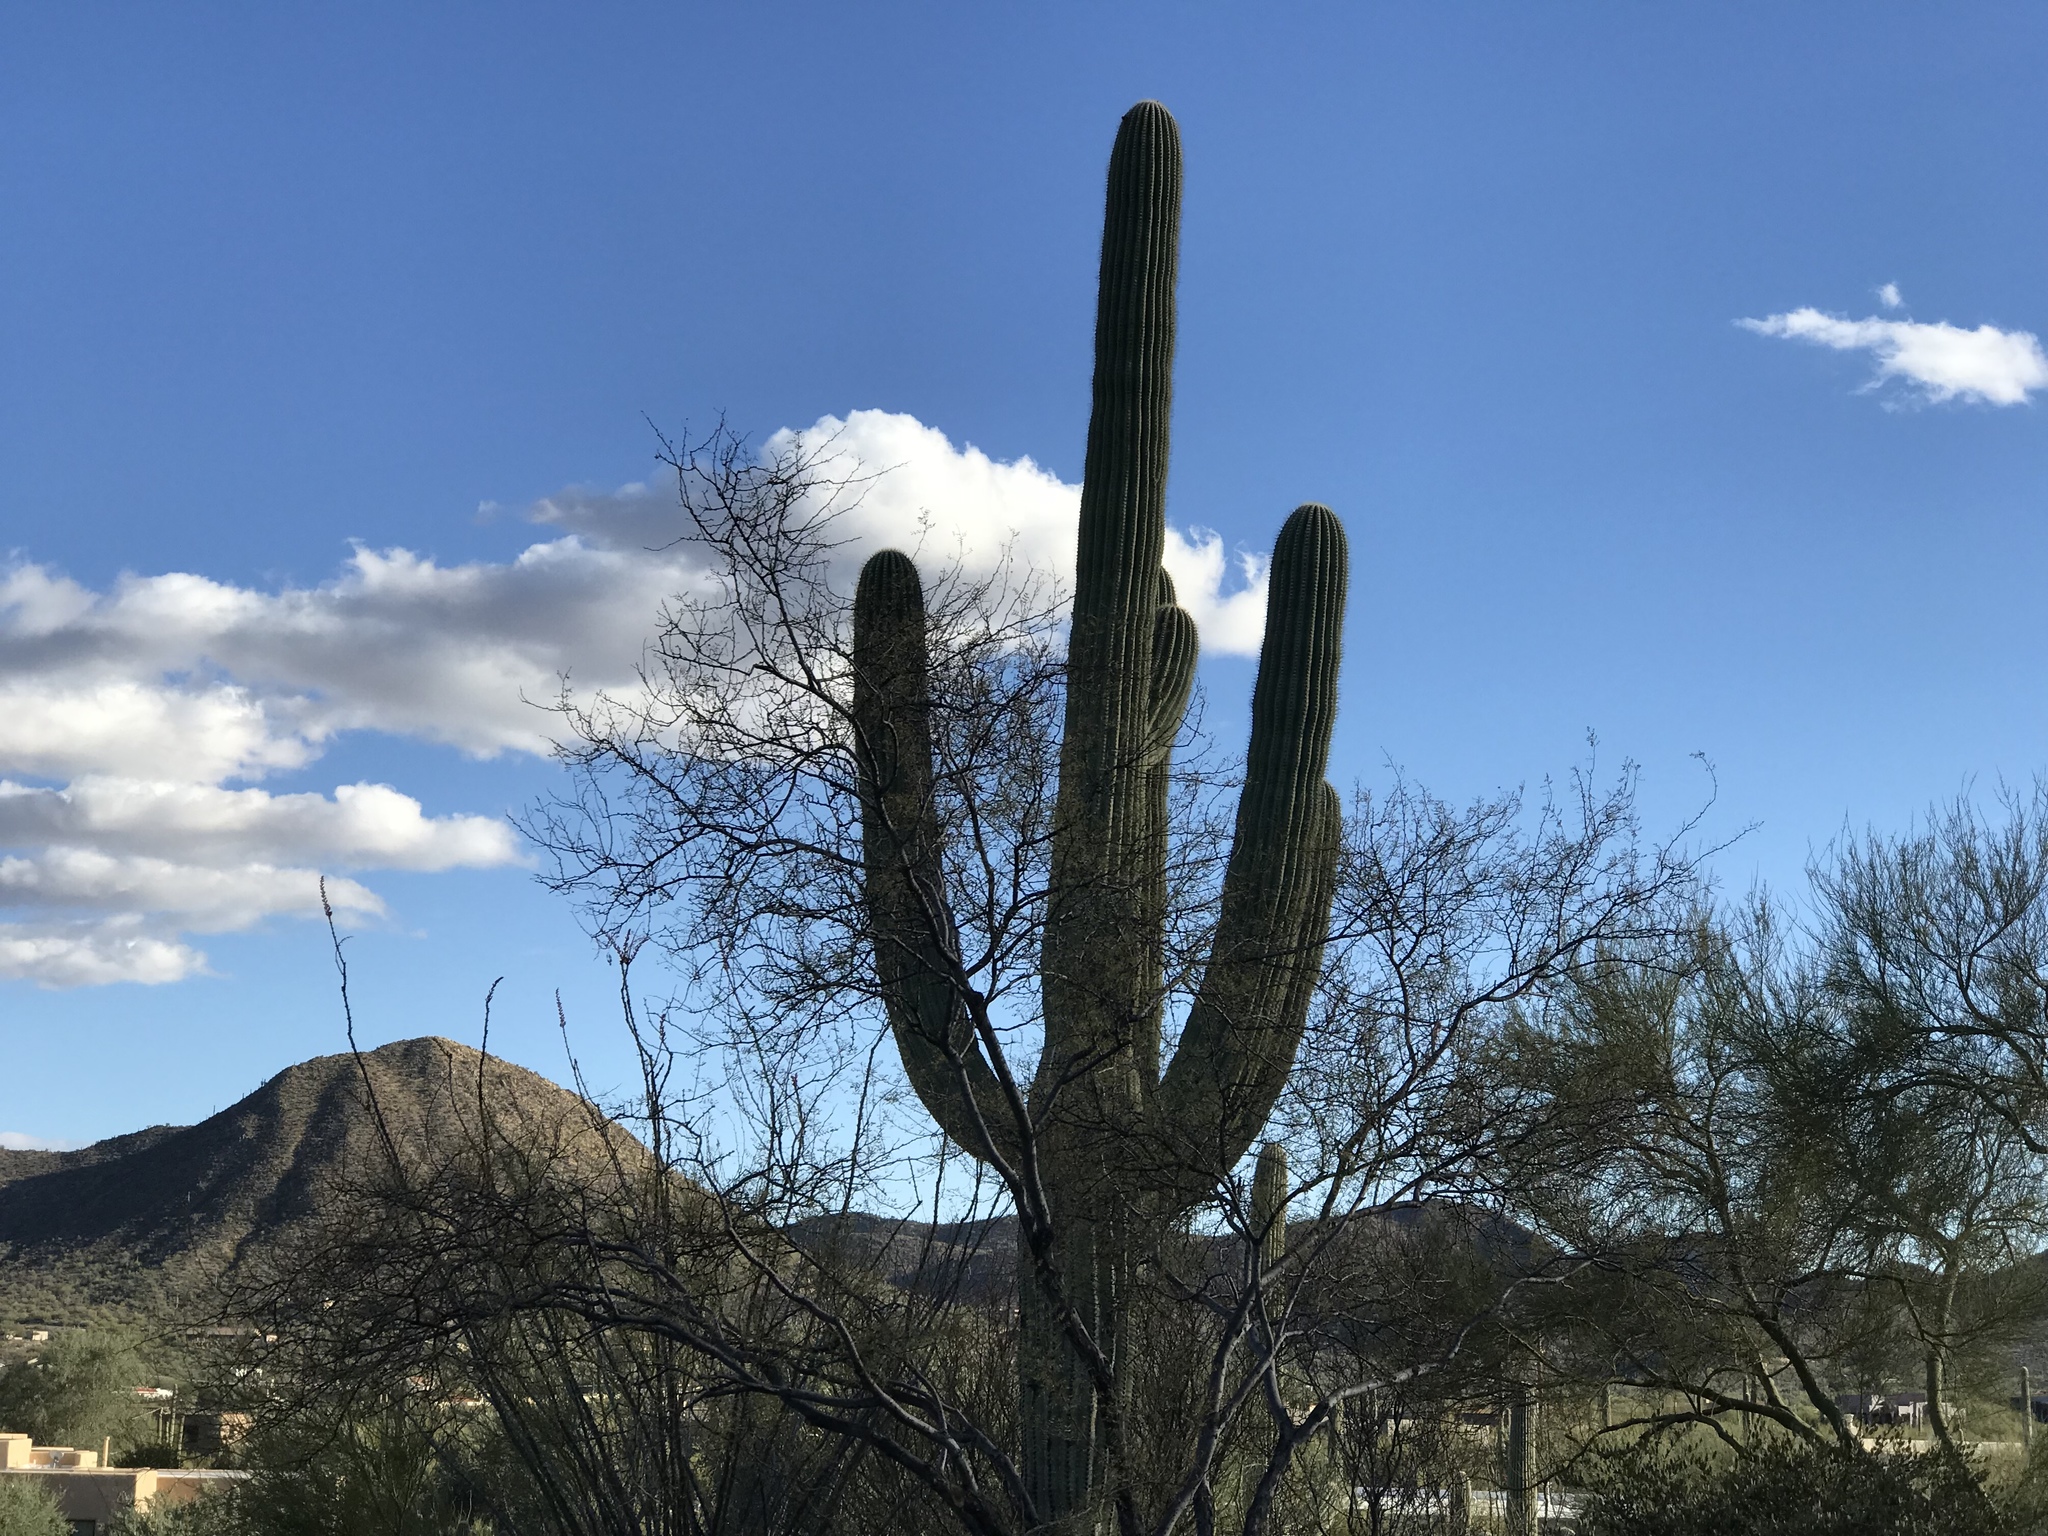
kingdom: Plantae
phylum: Tracheophyta
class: Magnoliopsida
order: Caryophyllales
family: Cactaceae
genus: Carnegiea
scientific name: Carnegiea gigantea
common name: Saguaro
